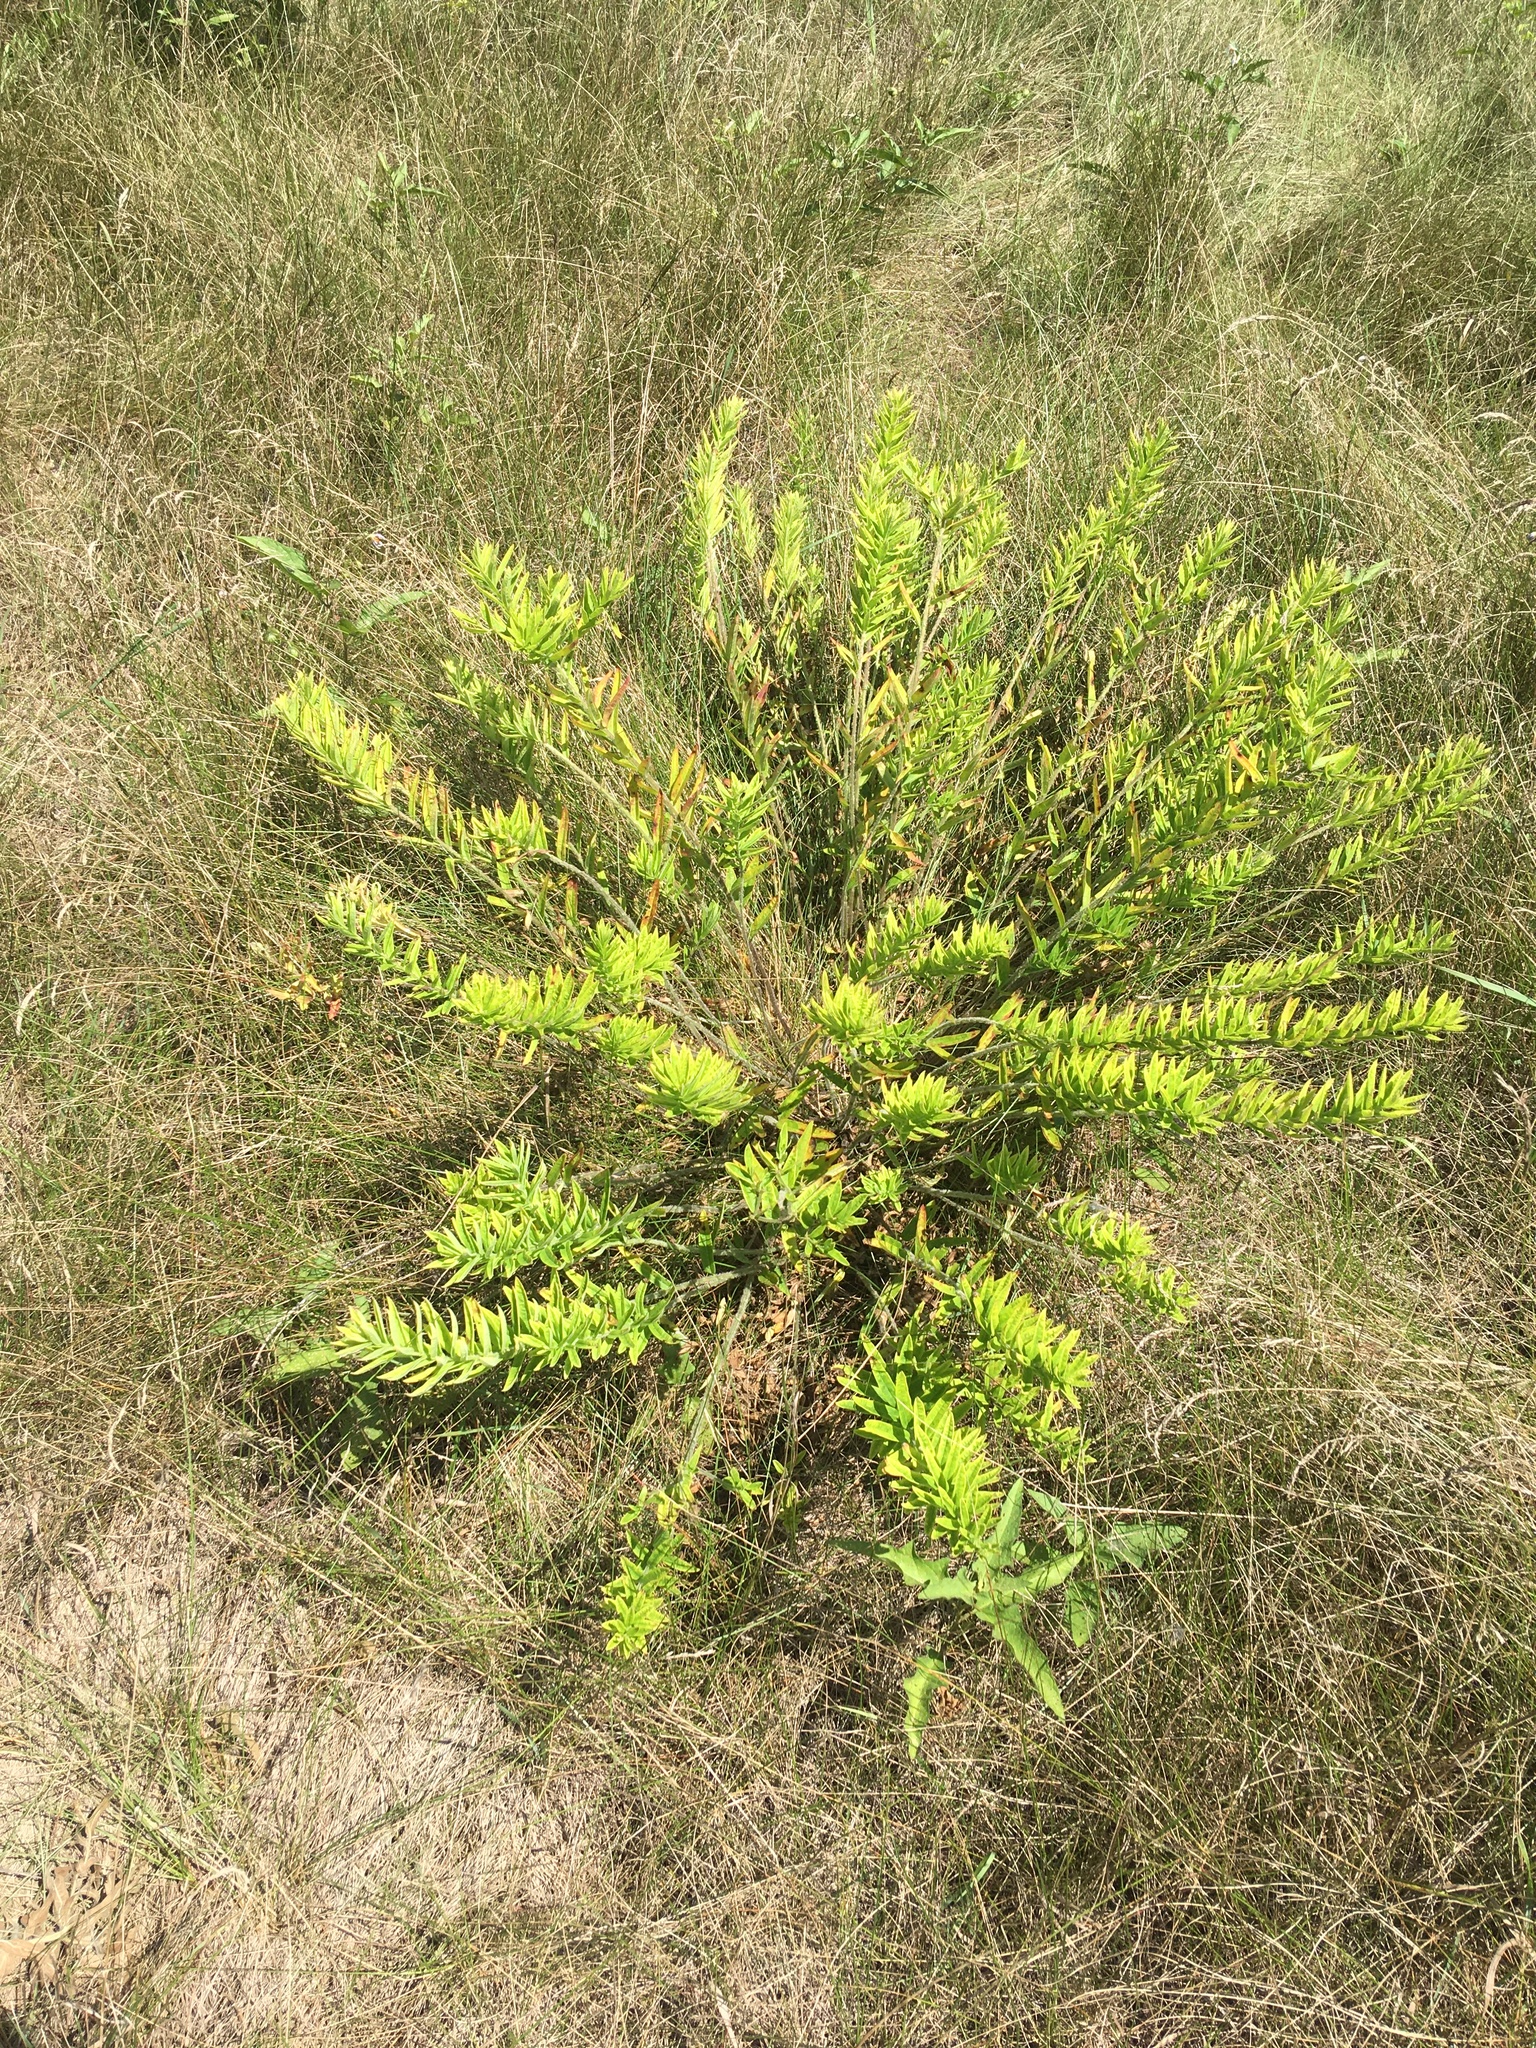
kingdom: Plantae
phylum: Tracheophyta
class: Magnoliopsida
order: Gentianales
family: Apocynaceae
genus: Asclepias
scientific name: Asclepias tuberosa
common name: Butterfly milkweed
